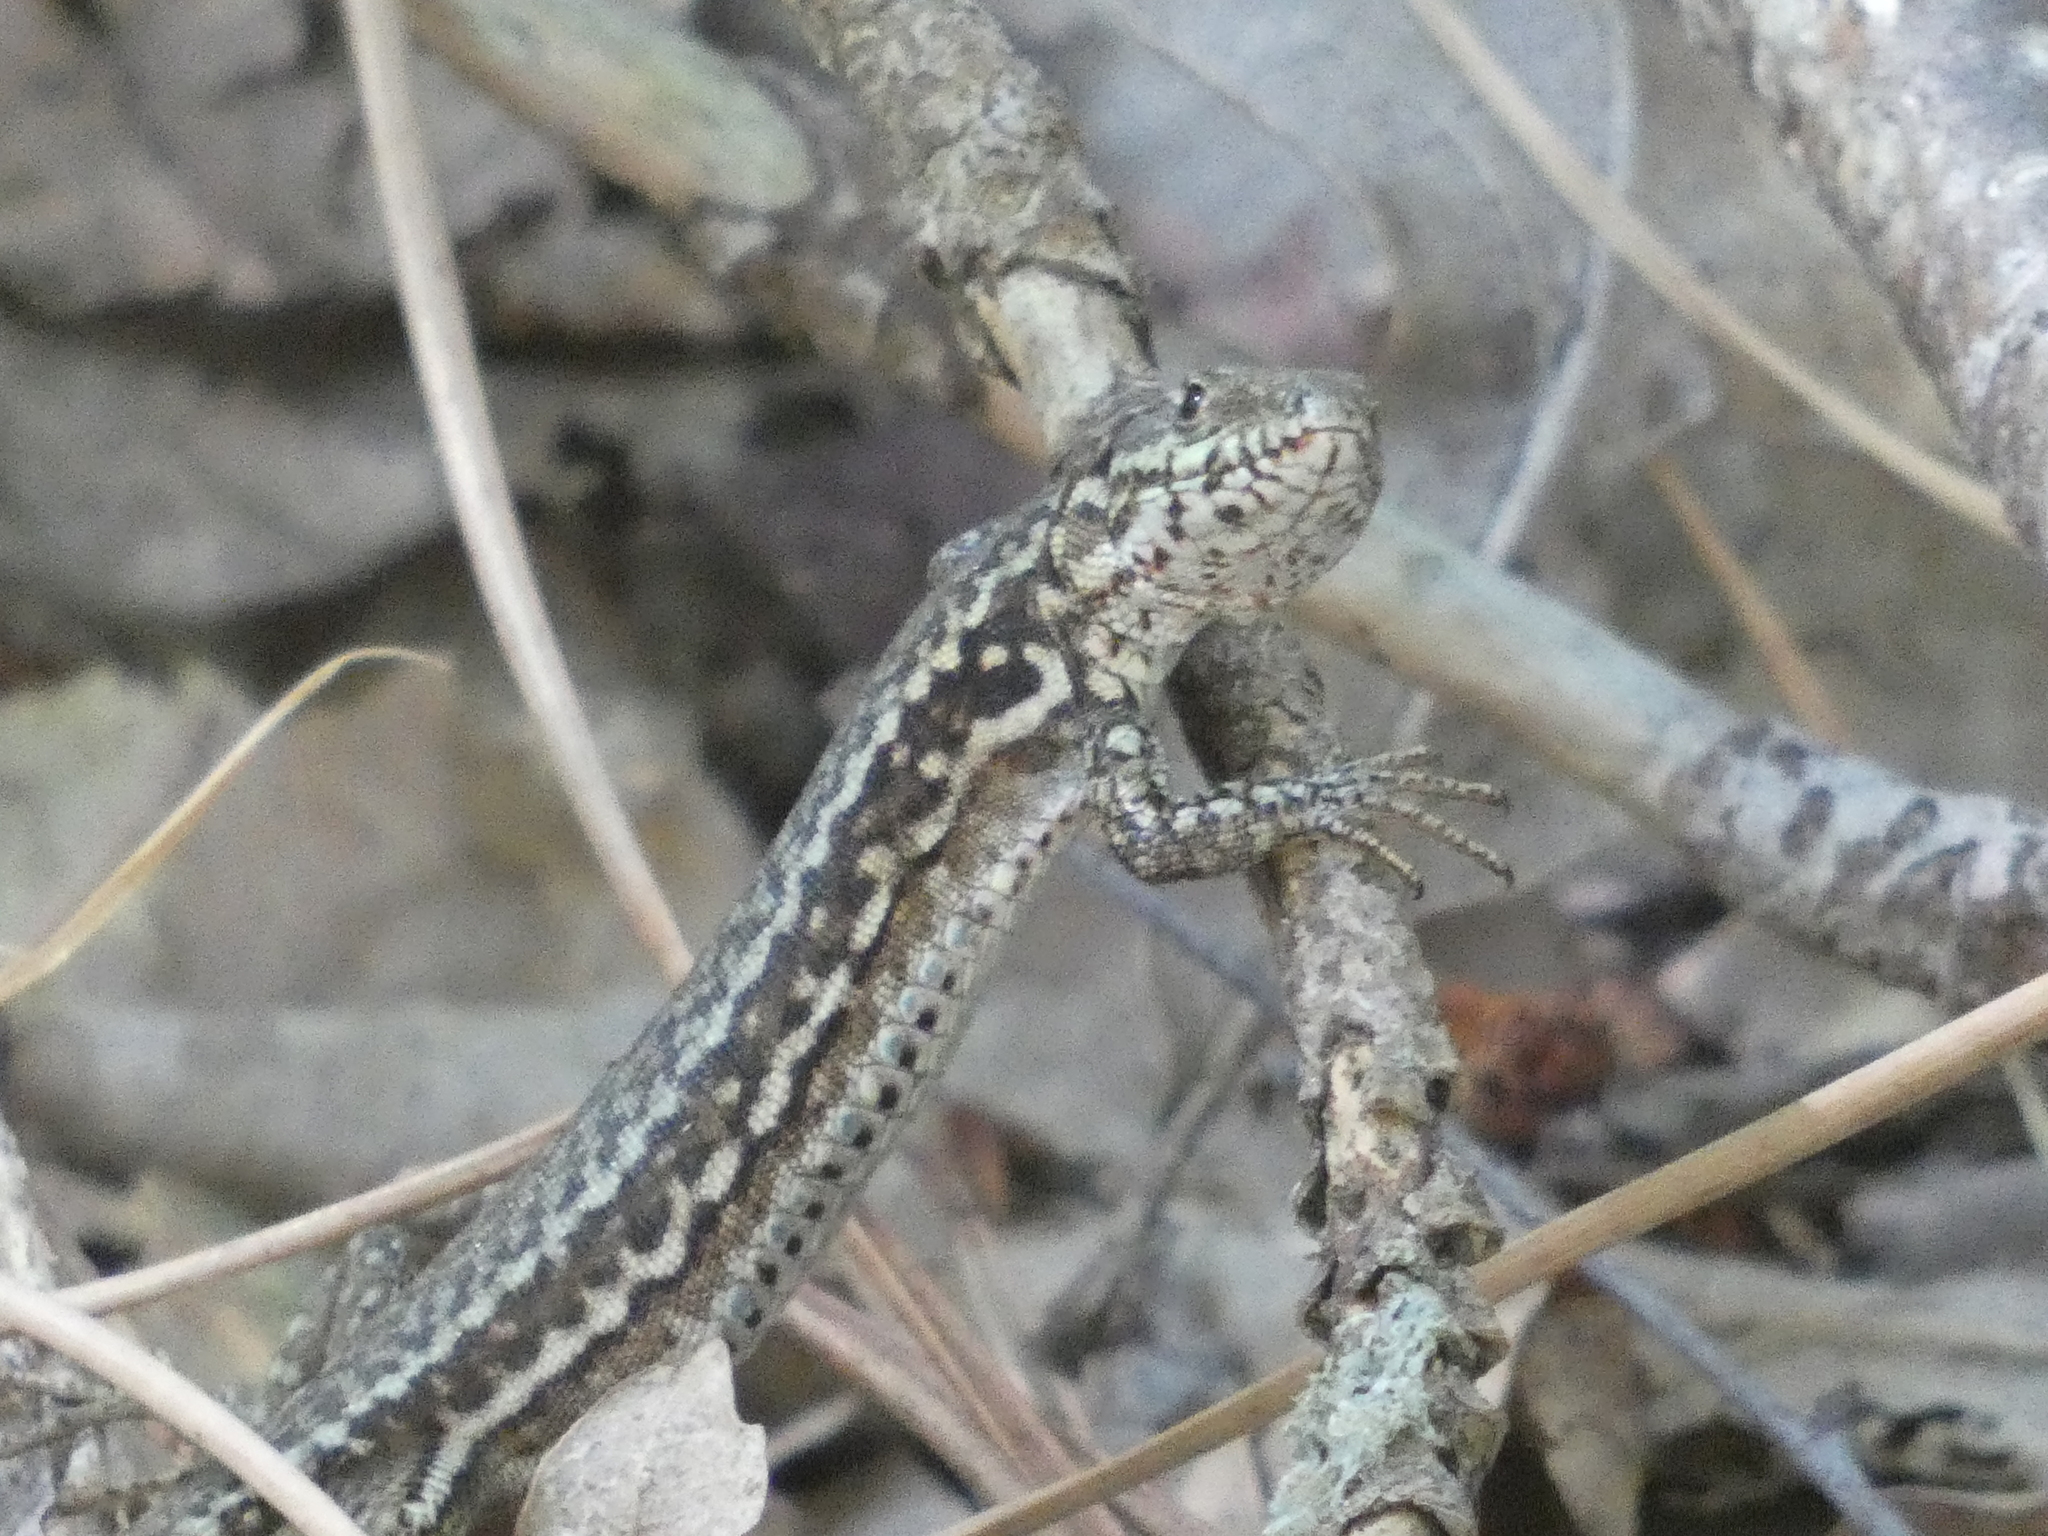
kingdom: Animalia
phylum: Chordata
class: Squamata
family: Lacertidae
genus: Podarcis
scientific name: Podarcis muralis
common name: Common wall lizard
